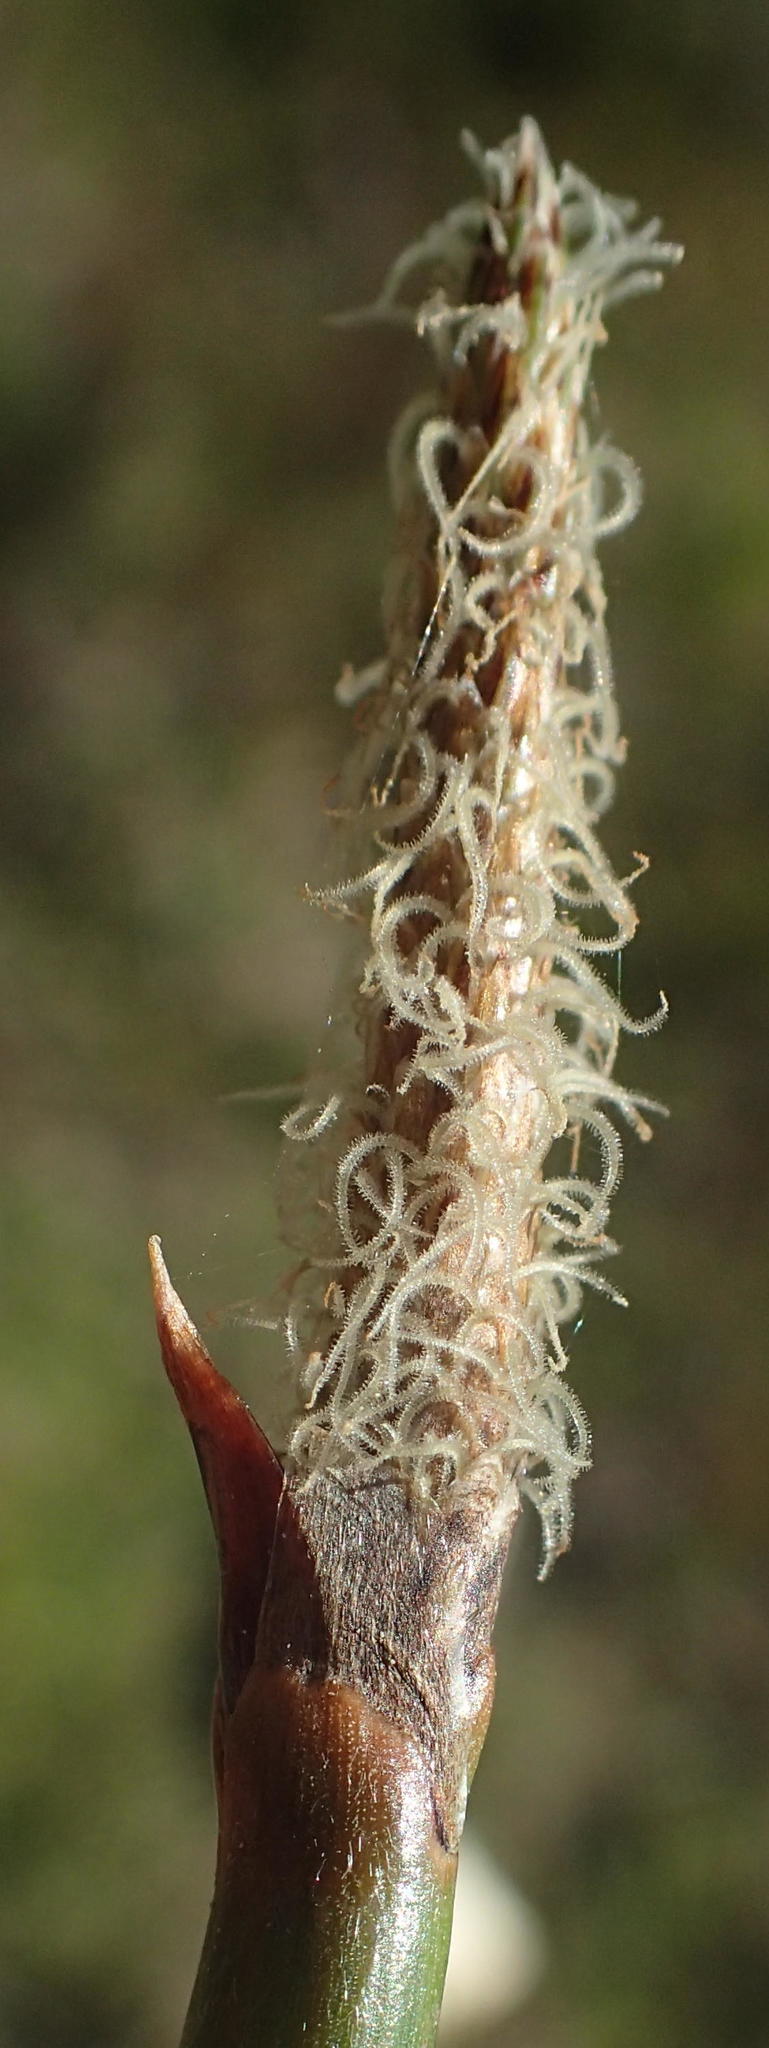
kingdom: Plantae
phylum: Tracheophyta
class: Liliopsida
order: Poales
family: Cyperaceae
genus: Eleocharis
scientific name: Eleocharis limosa
